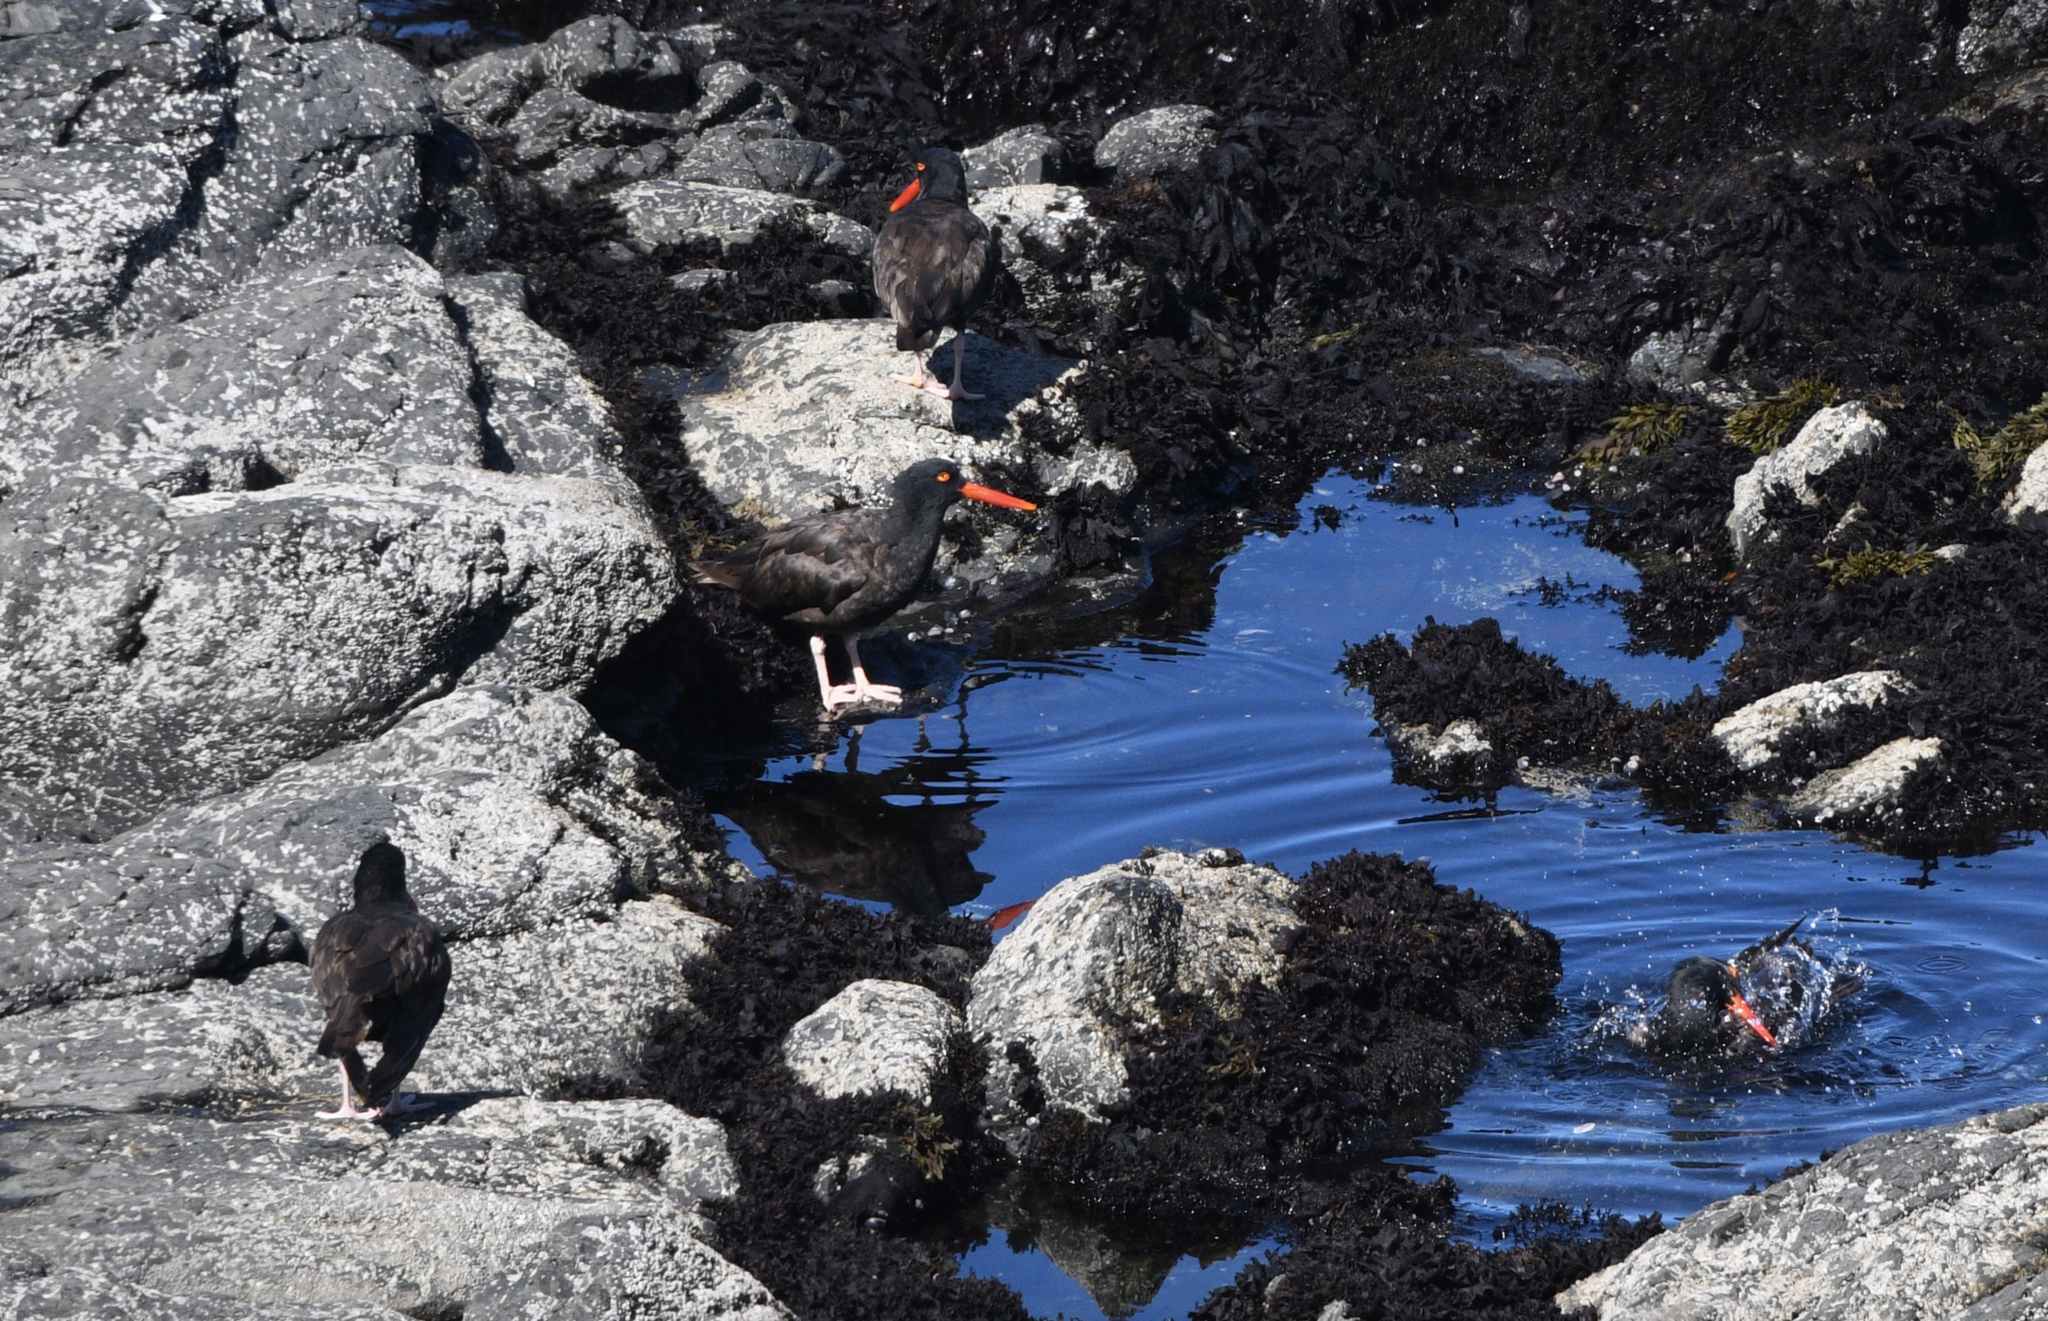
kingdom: Animalia
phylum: Chordata
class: Aves
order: Charadriiformes
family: Haematopodidae
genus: Haematopus
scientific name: Haematopus bachmani
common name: Black oystercatcher
